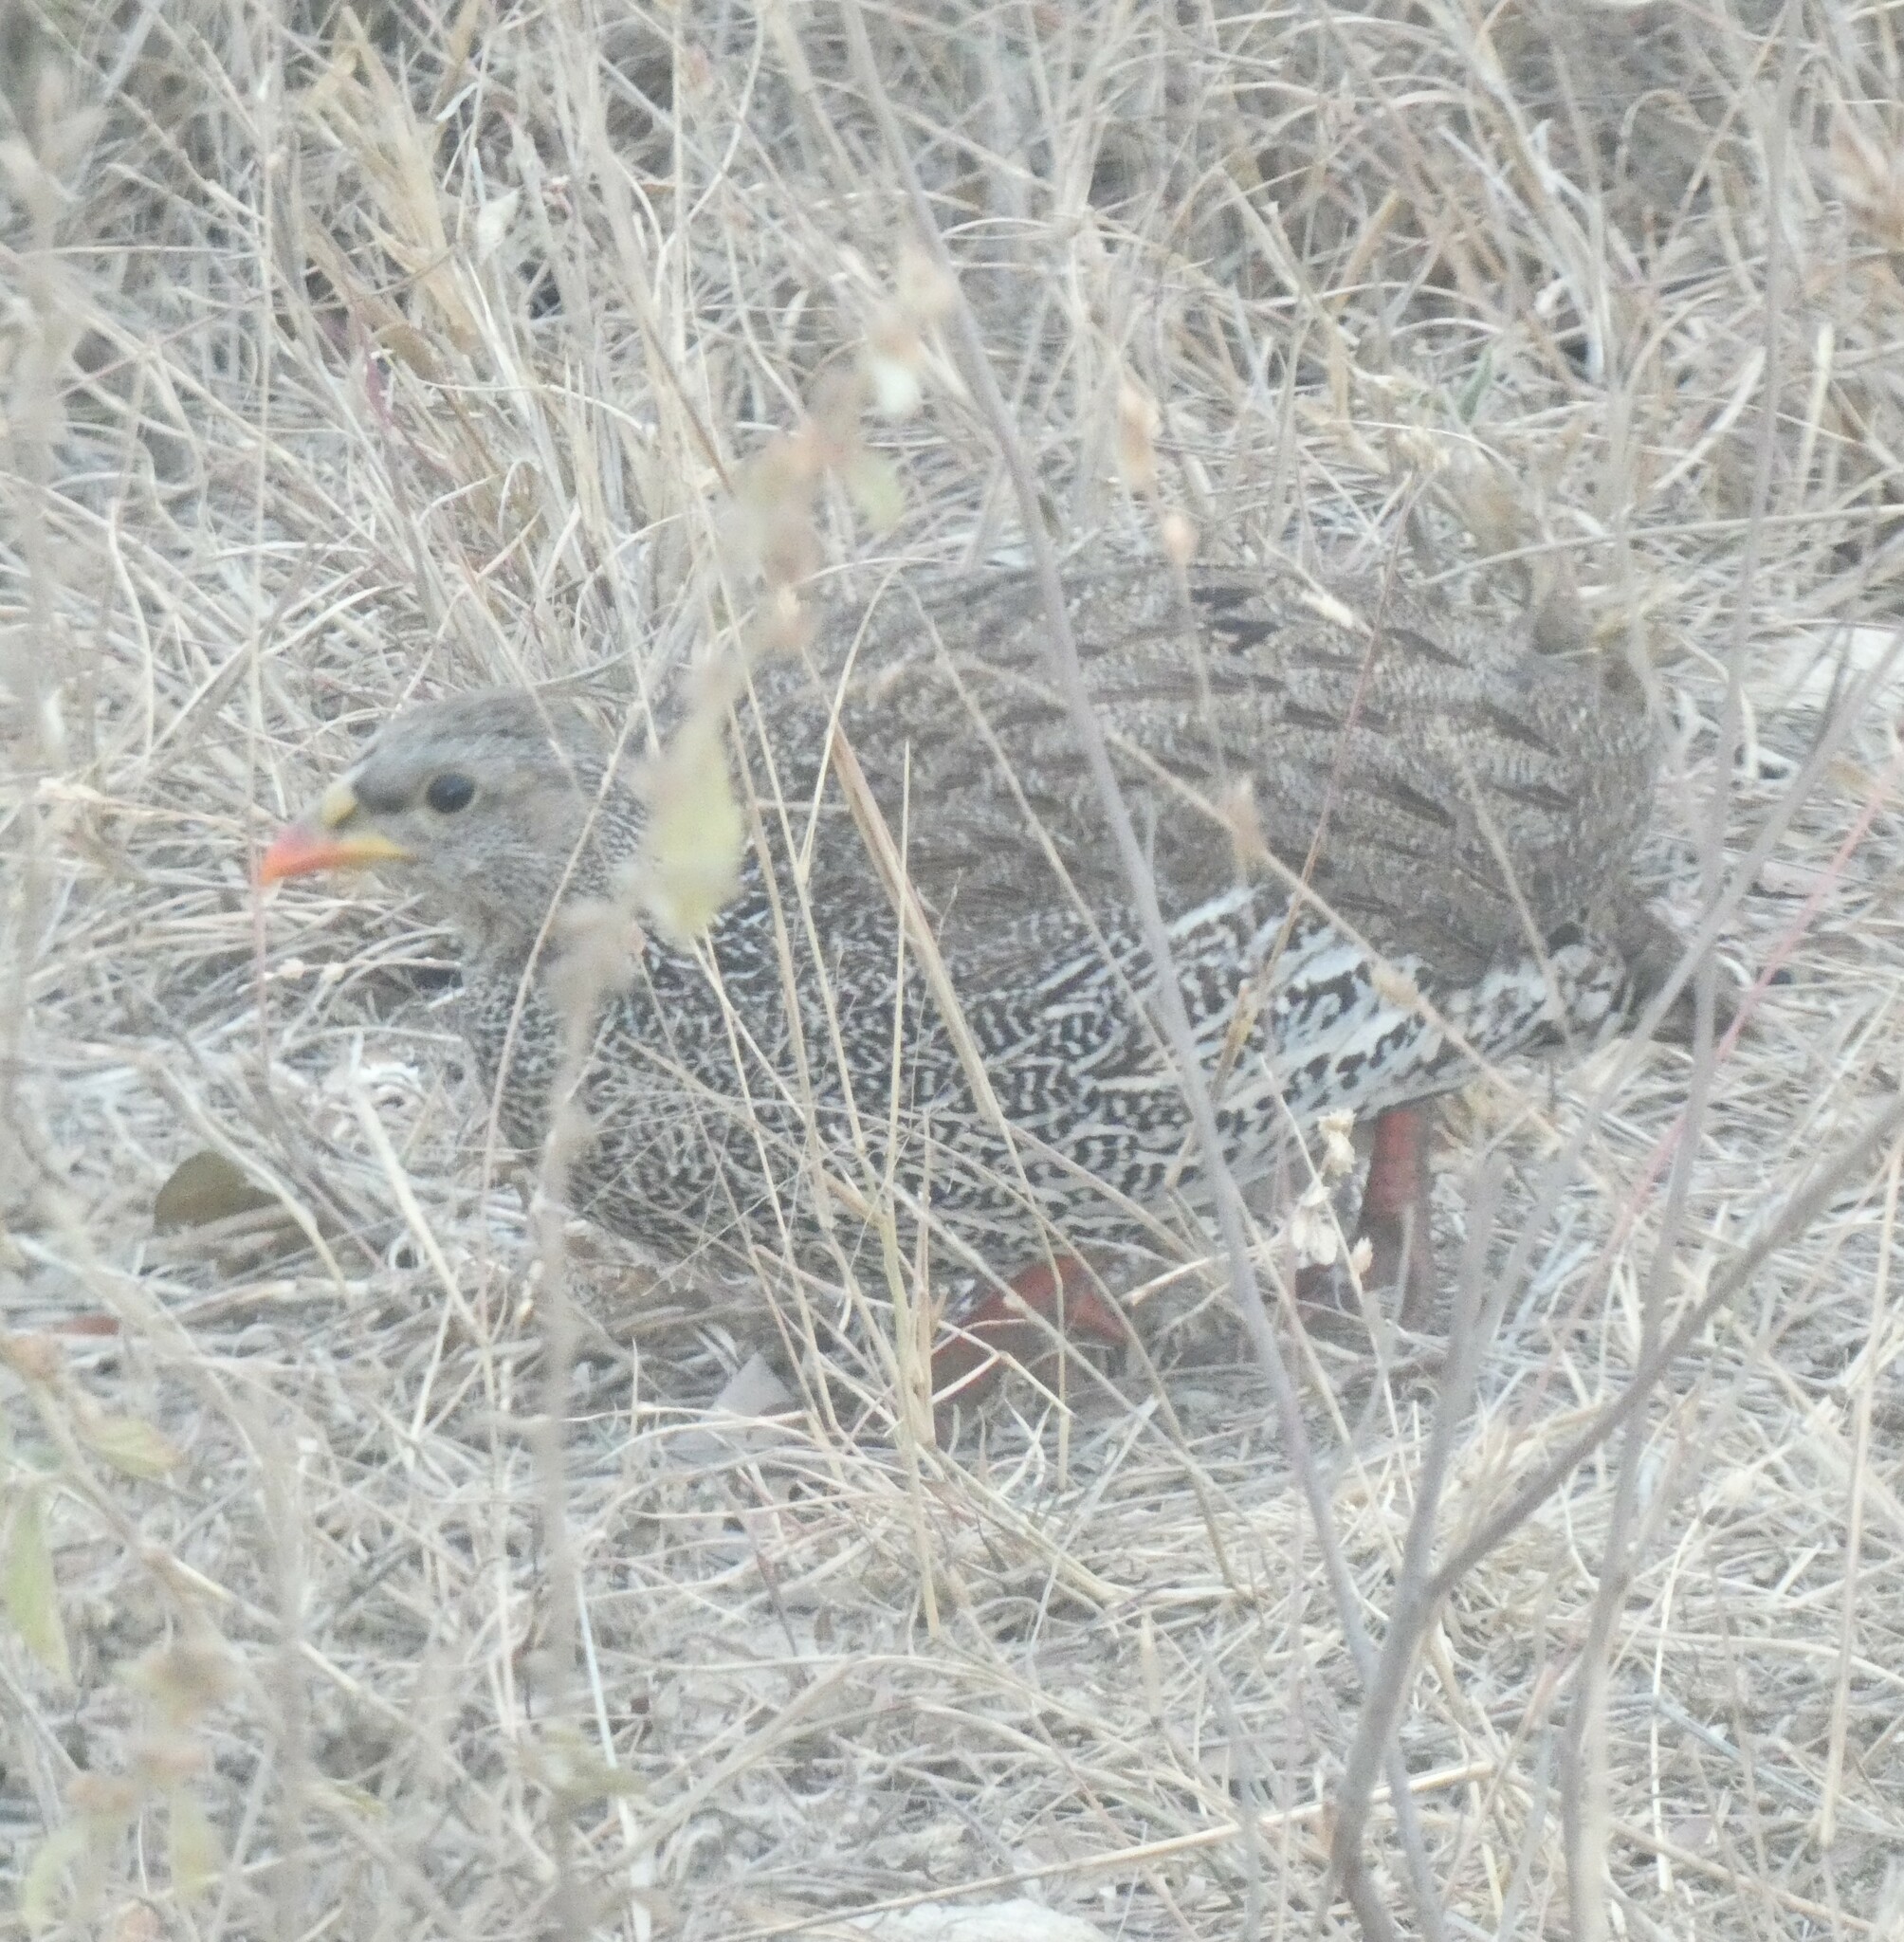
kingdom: Animalia
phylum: Chordata
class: Aves
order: Galliformes
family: Phasianidae
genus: Pternistis
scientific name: Pternistis natalensis
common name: Natal spurfowl
